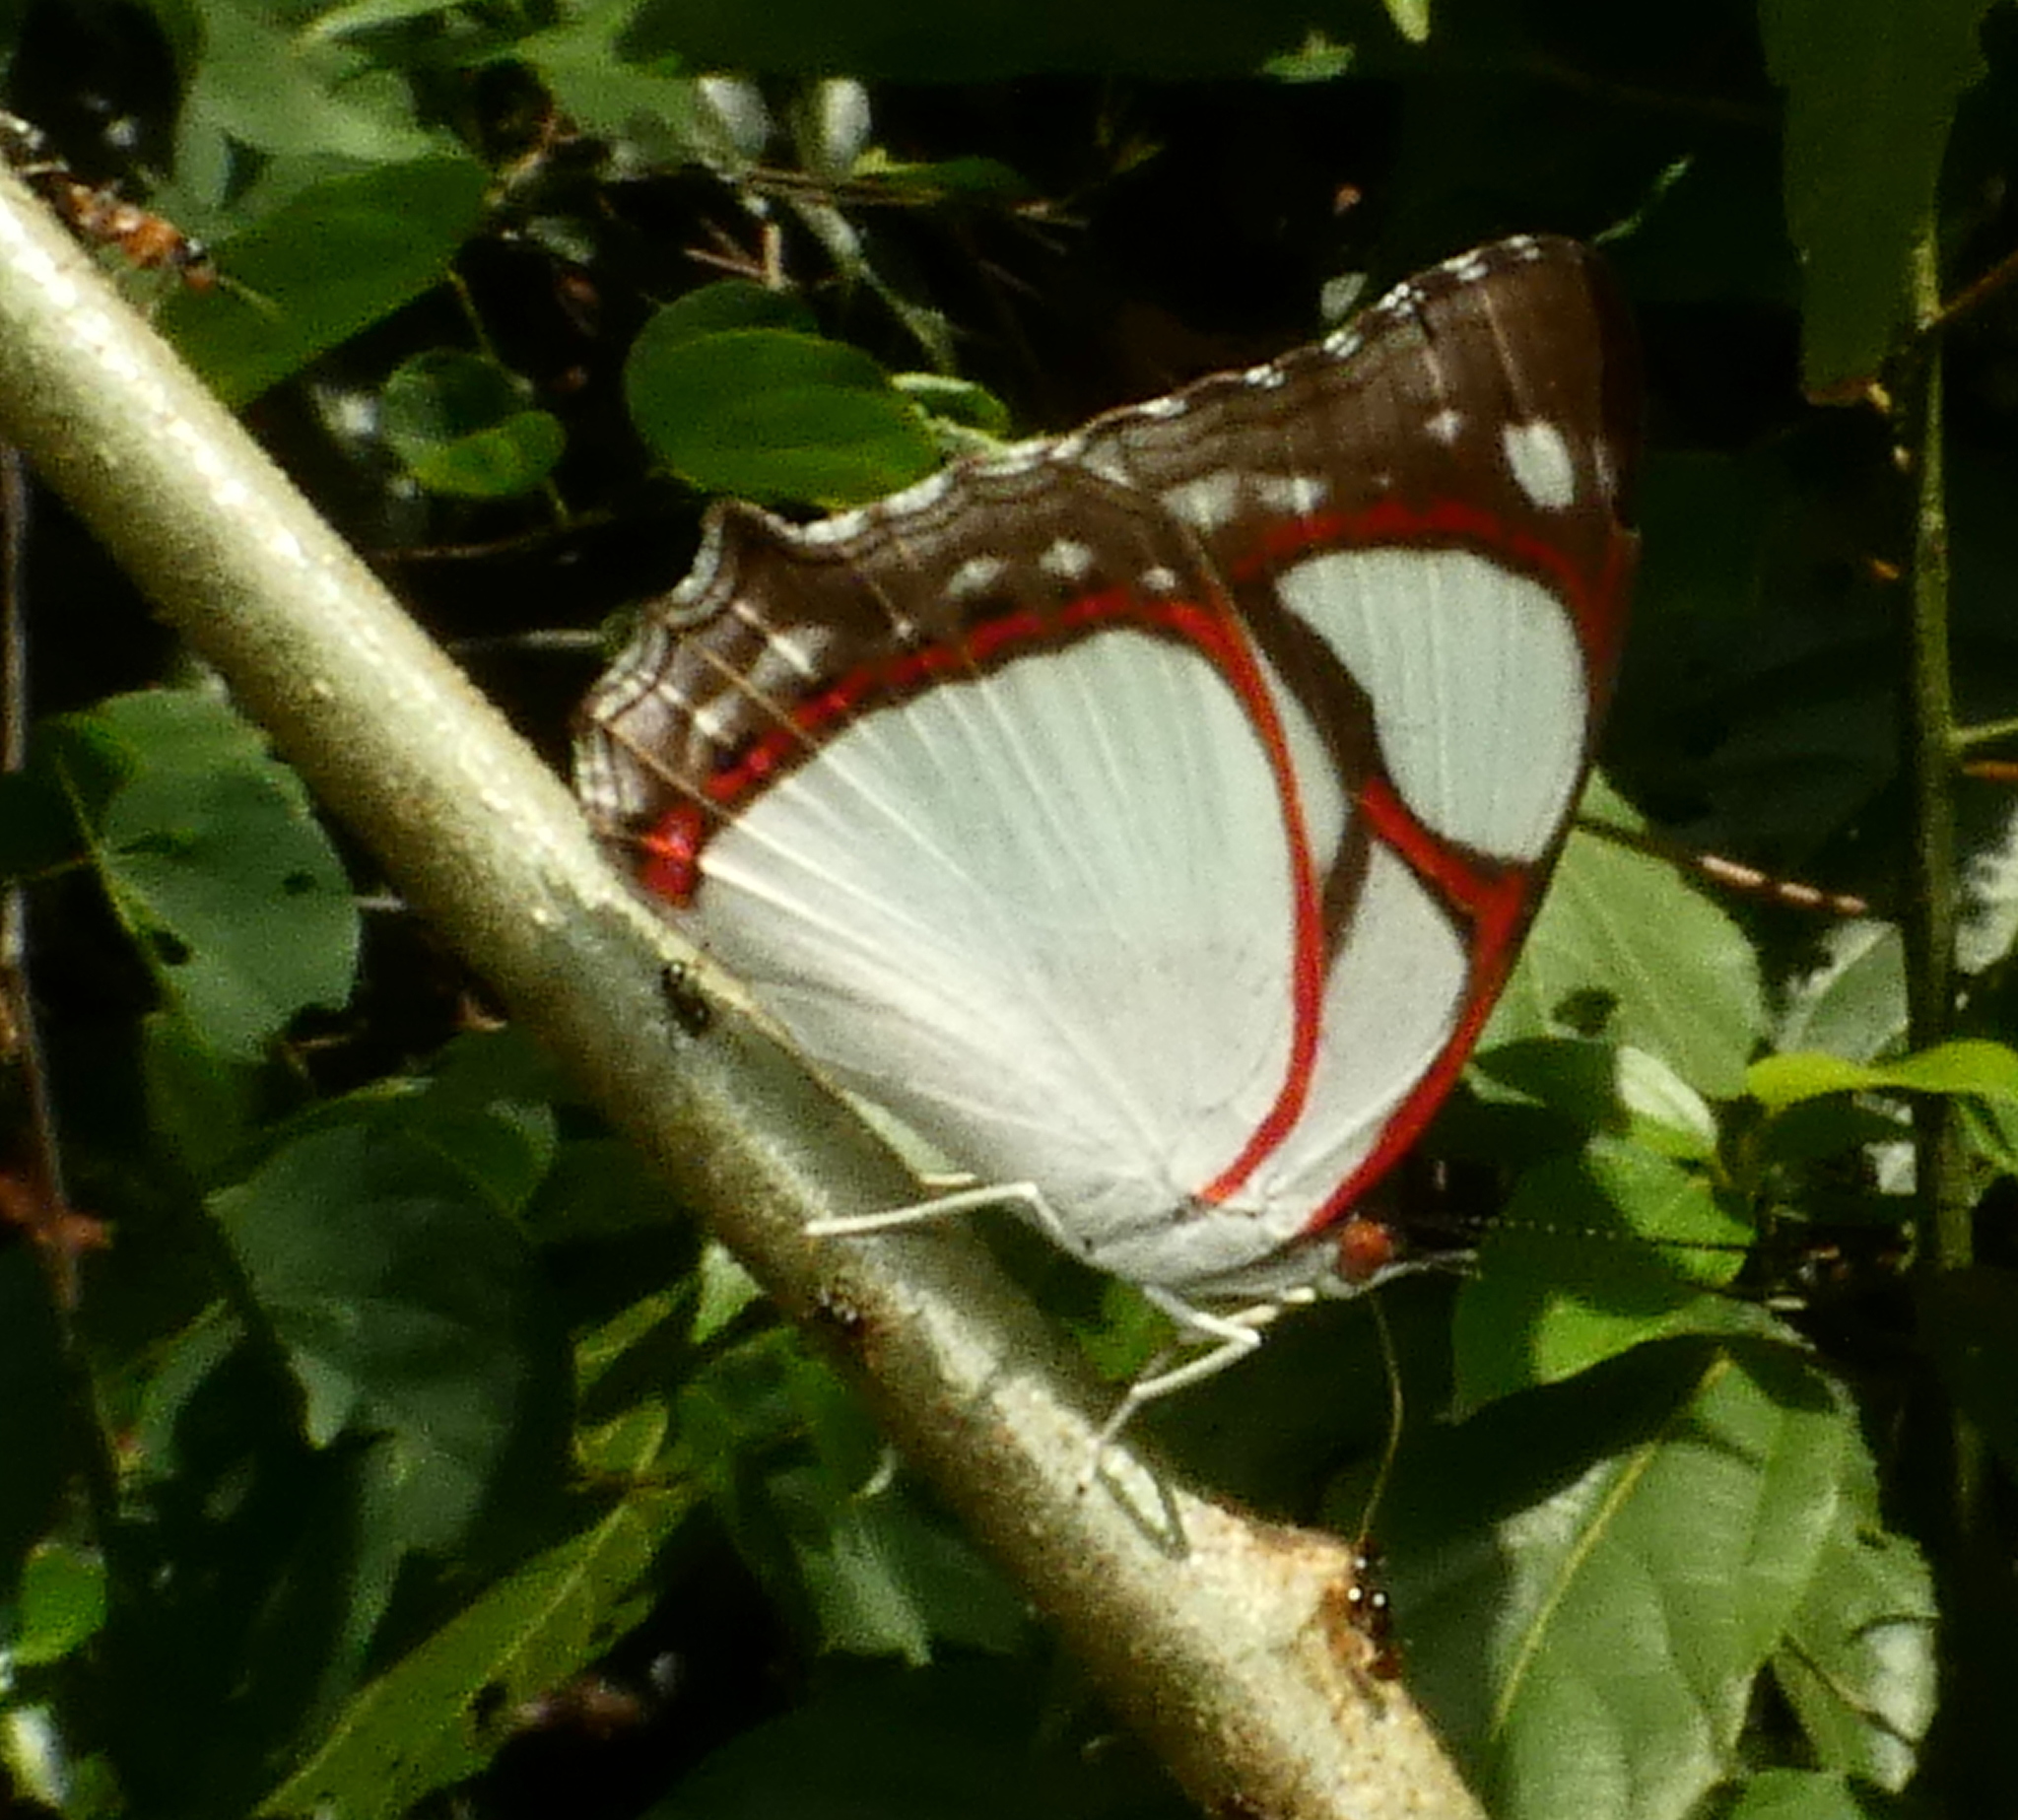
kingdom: Animalia
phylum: Arthropoda
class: Insecta
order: Lepidoptera
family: Nymphalidae
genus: Pyrrhogyra
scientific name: Pyrrhogyra neaerea
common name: Leading red-ring
